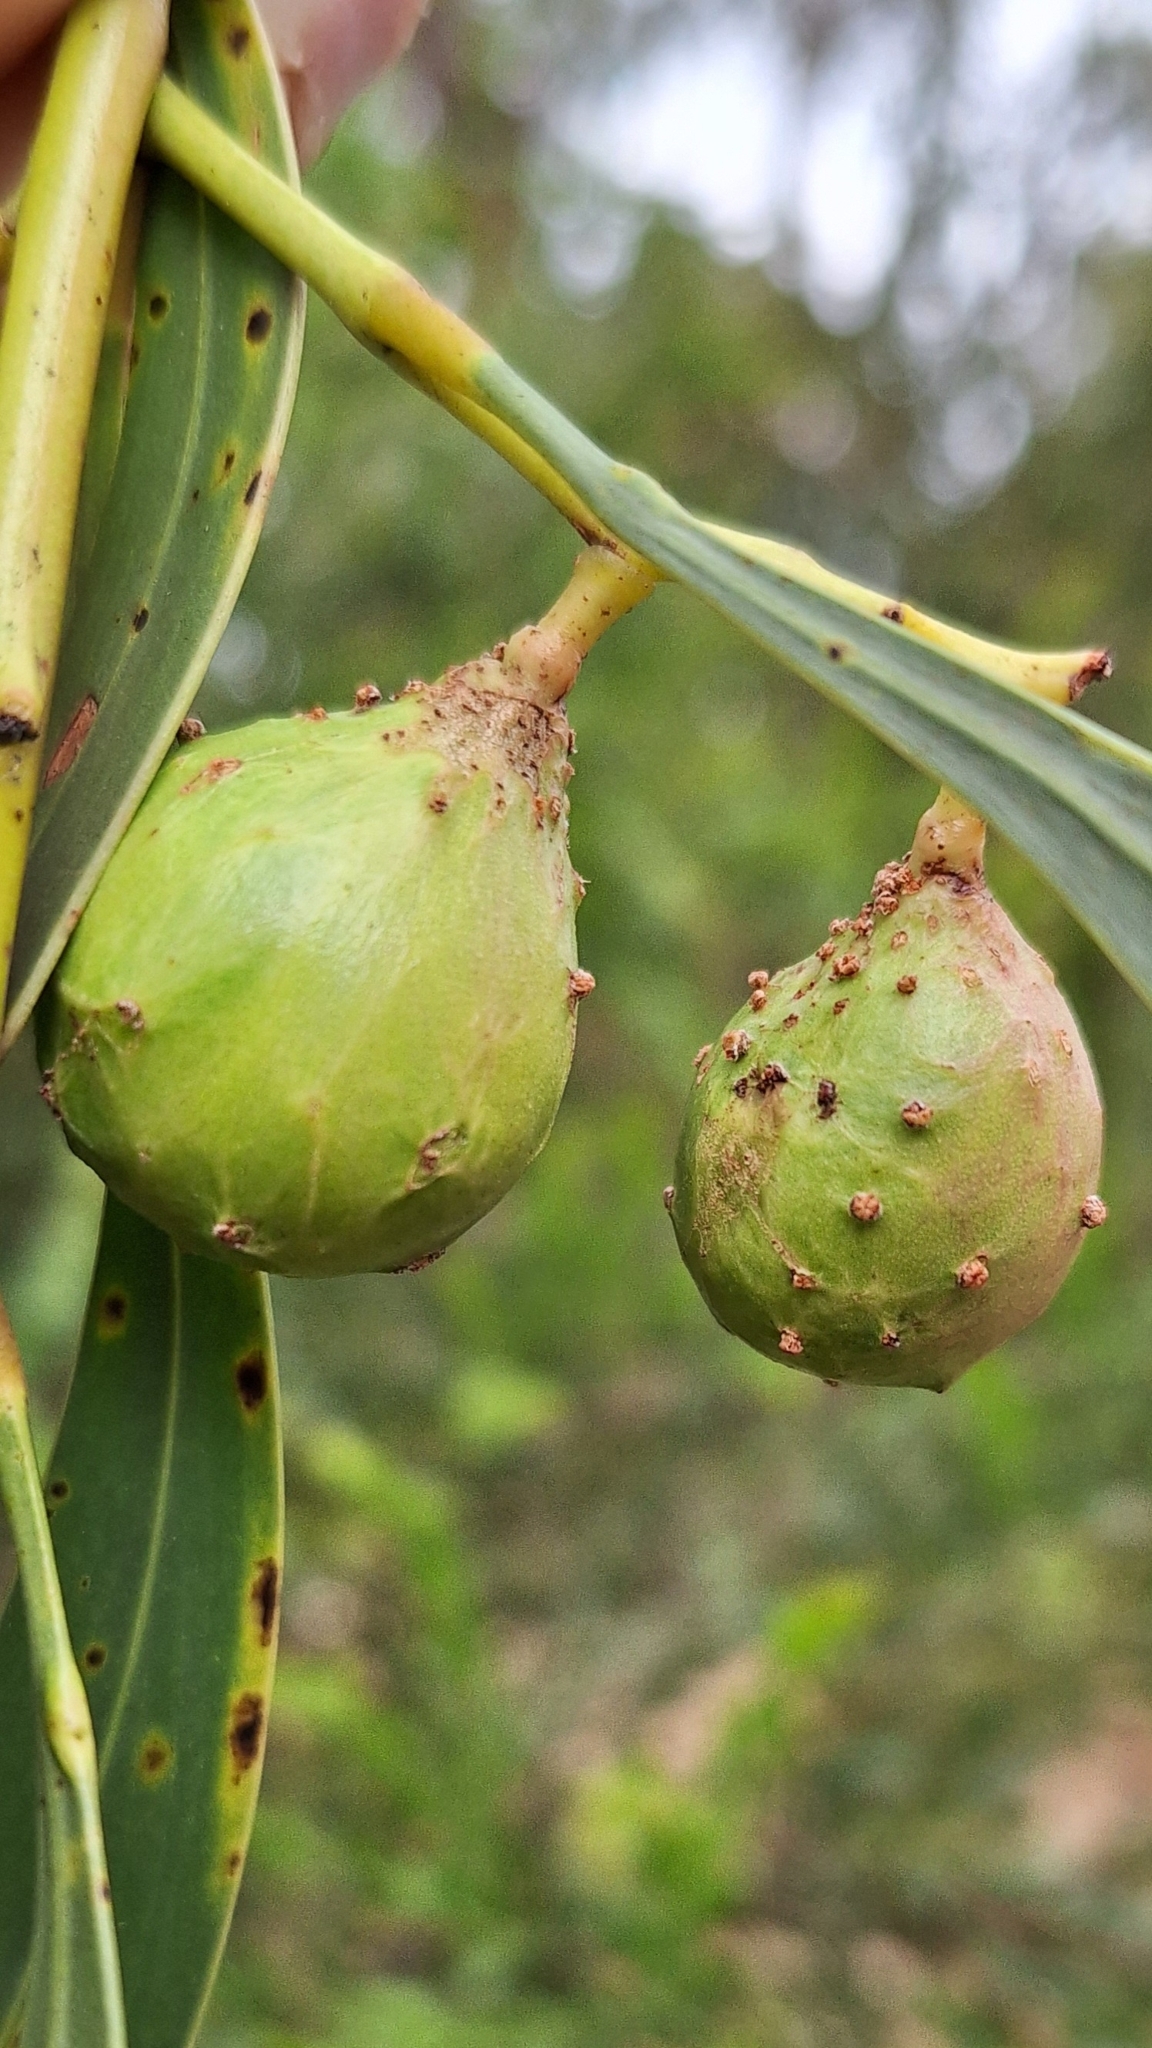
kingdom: Animalia
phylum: Arthropoda
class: Insecta
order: Hymenoptera
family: Pteromalidae
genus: Trichilogaster
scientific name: Trichilogaster signiventris
